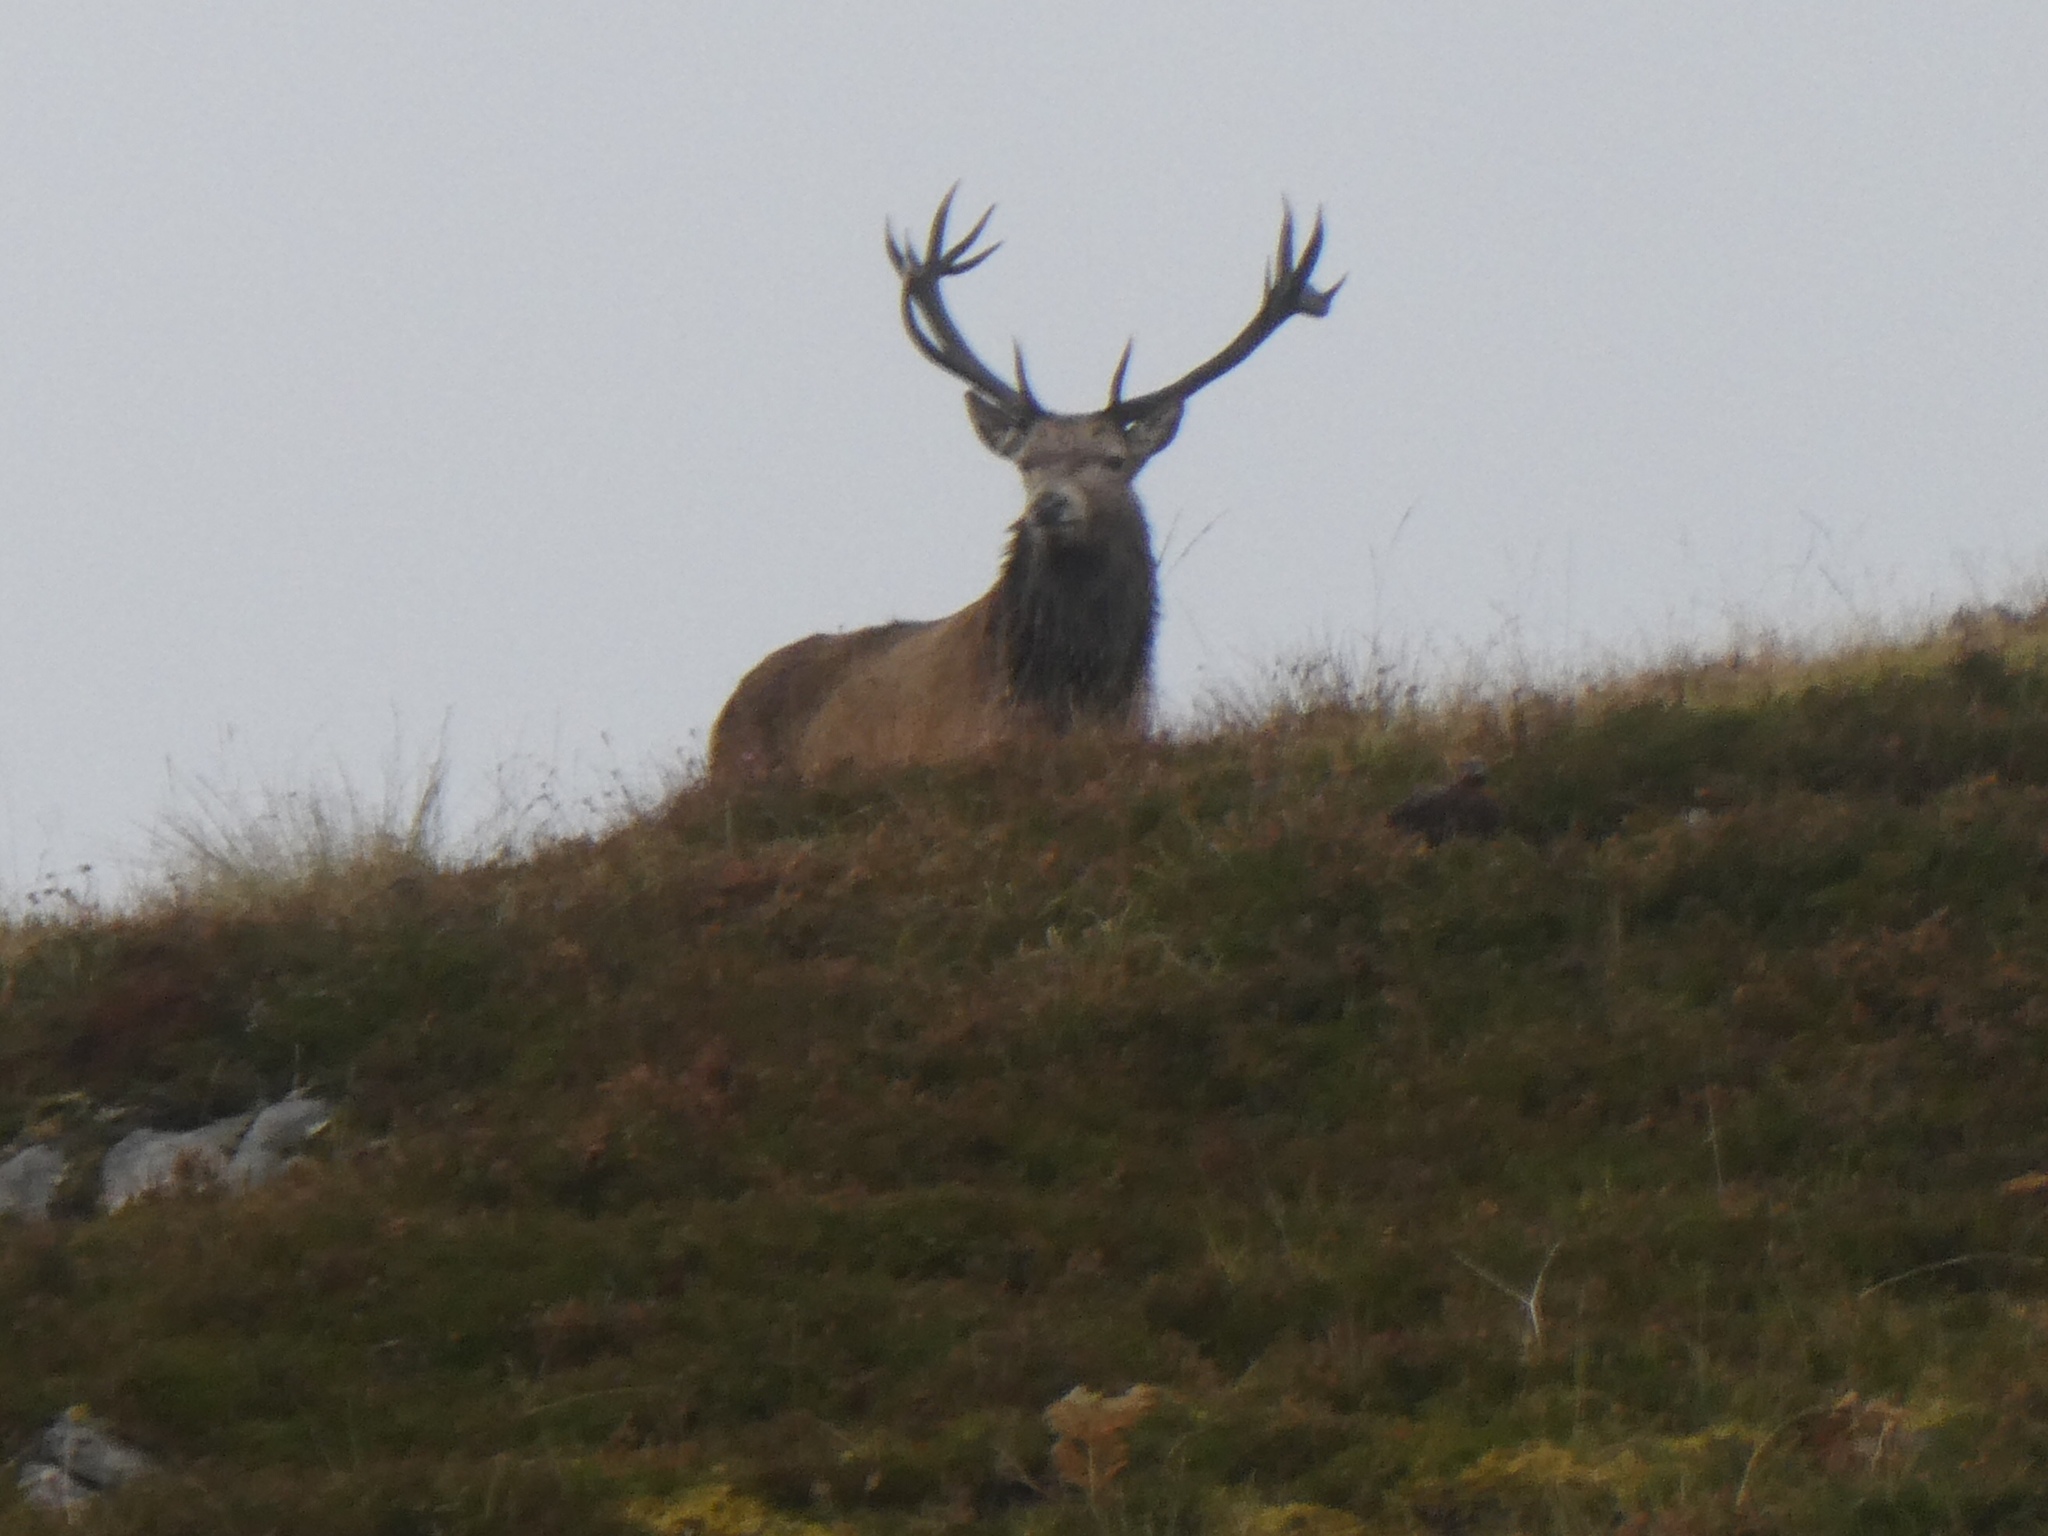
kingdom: Animalia
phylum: Chordata
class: Mammalia
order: Artiodactyla
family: Cervidae
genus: Cervus
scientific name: Cervus elaphus
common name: Red deer
